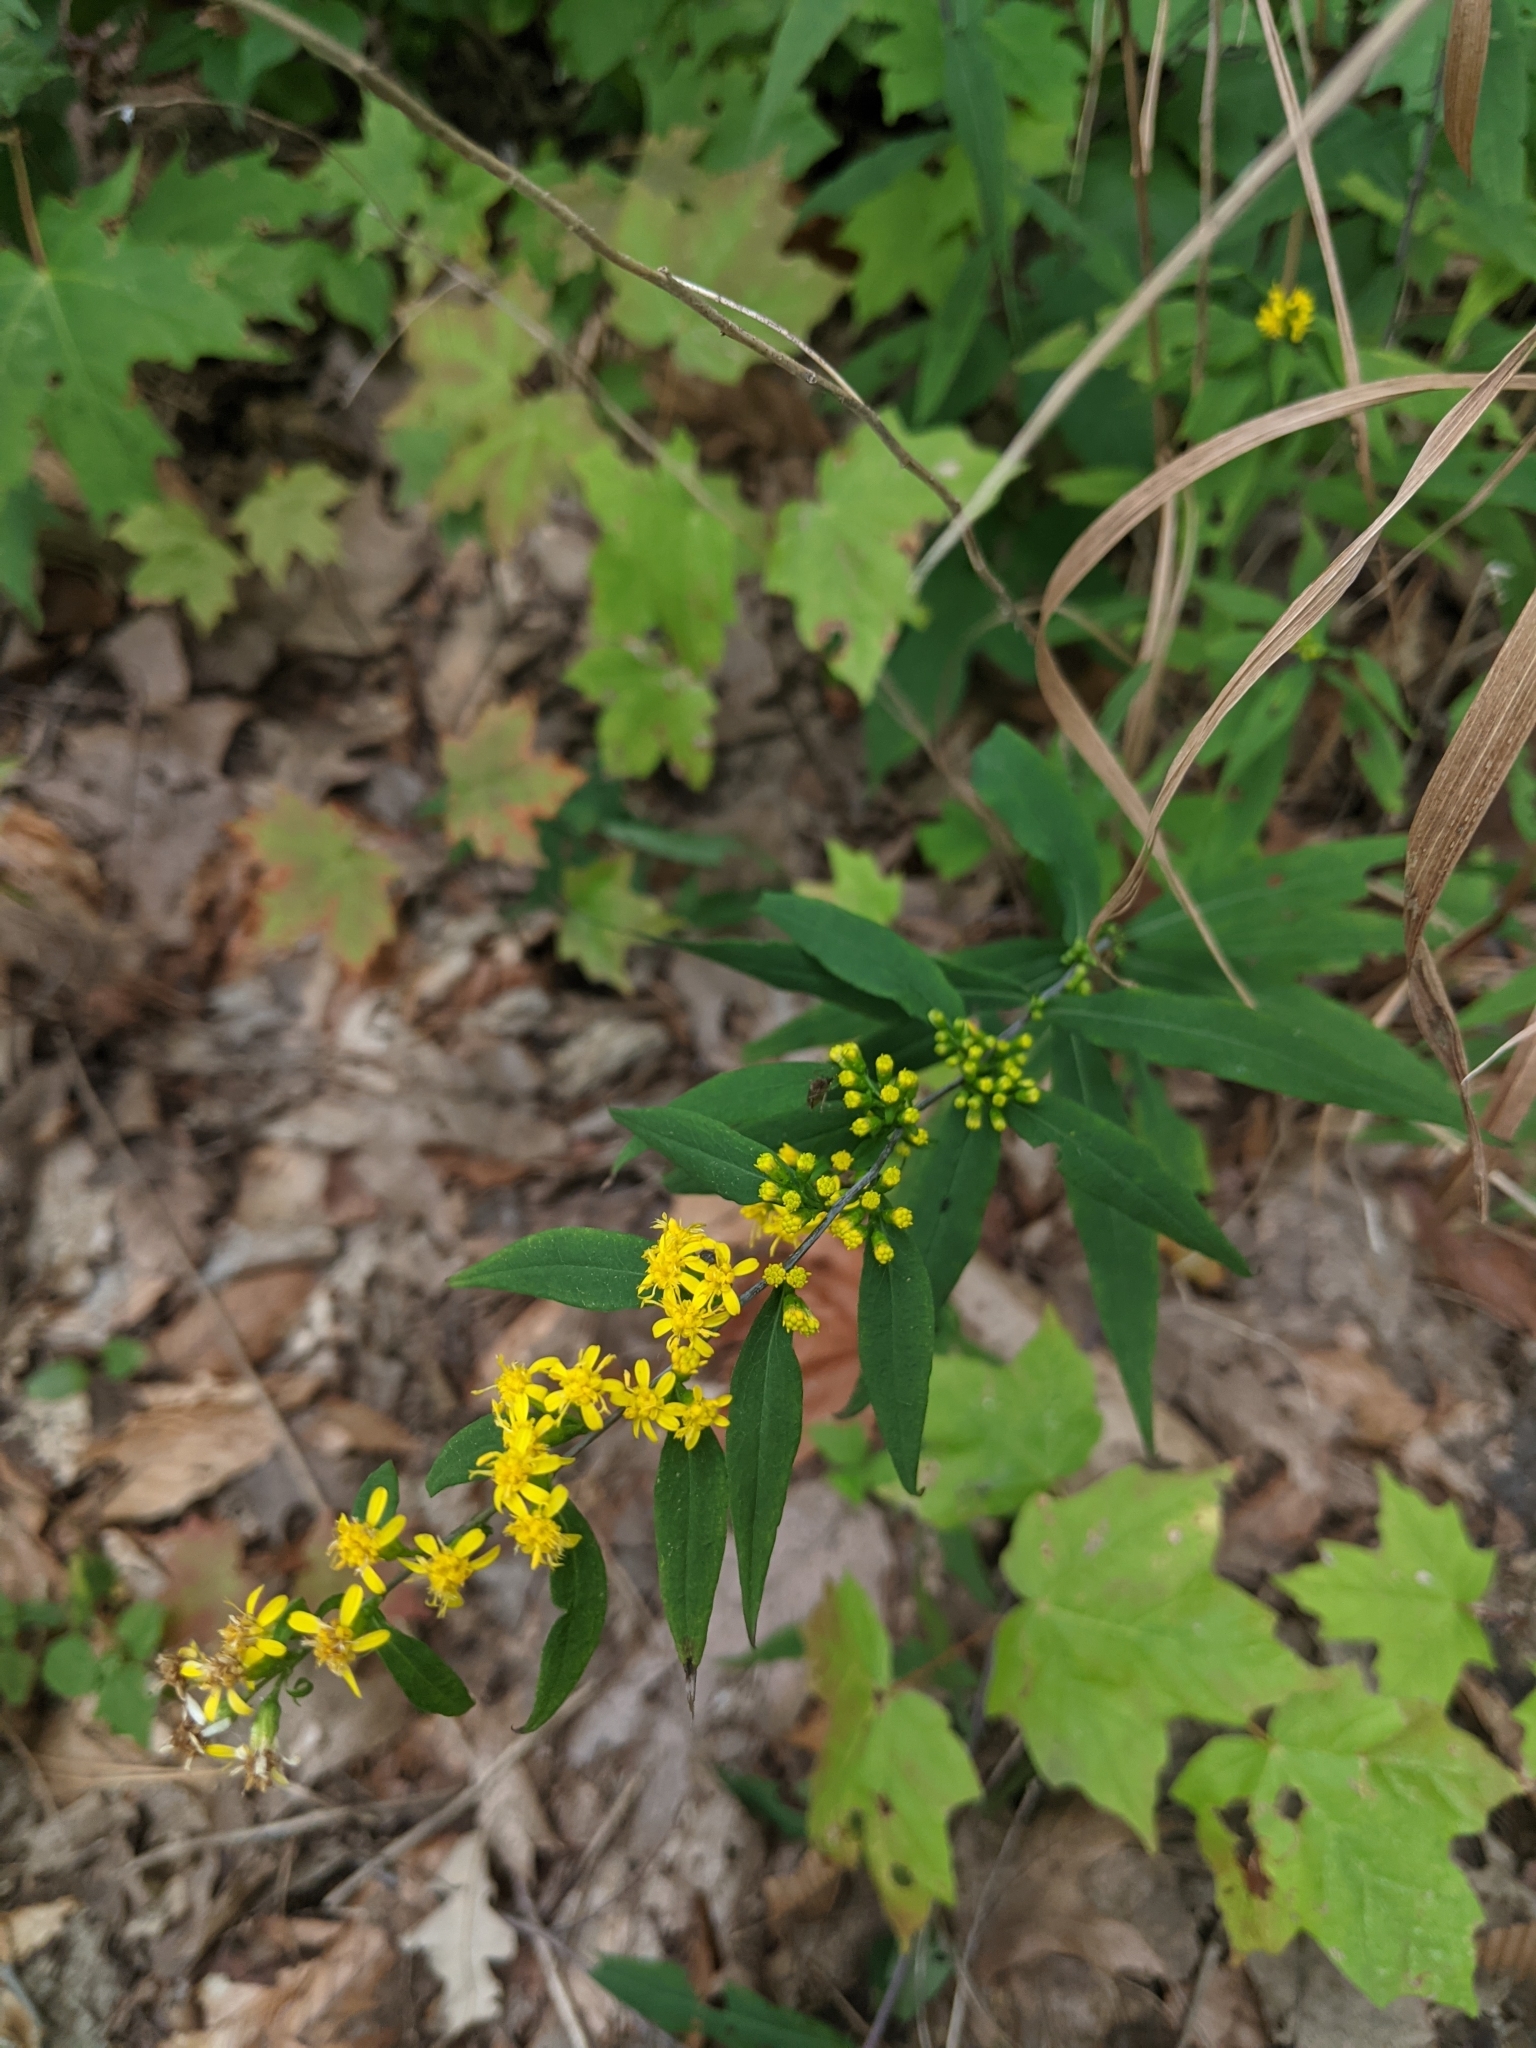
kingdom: Plantae
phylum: Tracheophyta
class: Magnoliopsida
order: Asterales
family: Asteraceae
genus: Solidago
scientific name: Solidago caesia
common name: Woodland goldenrod
